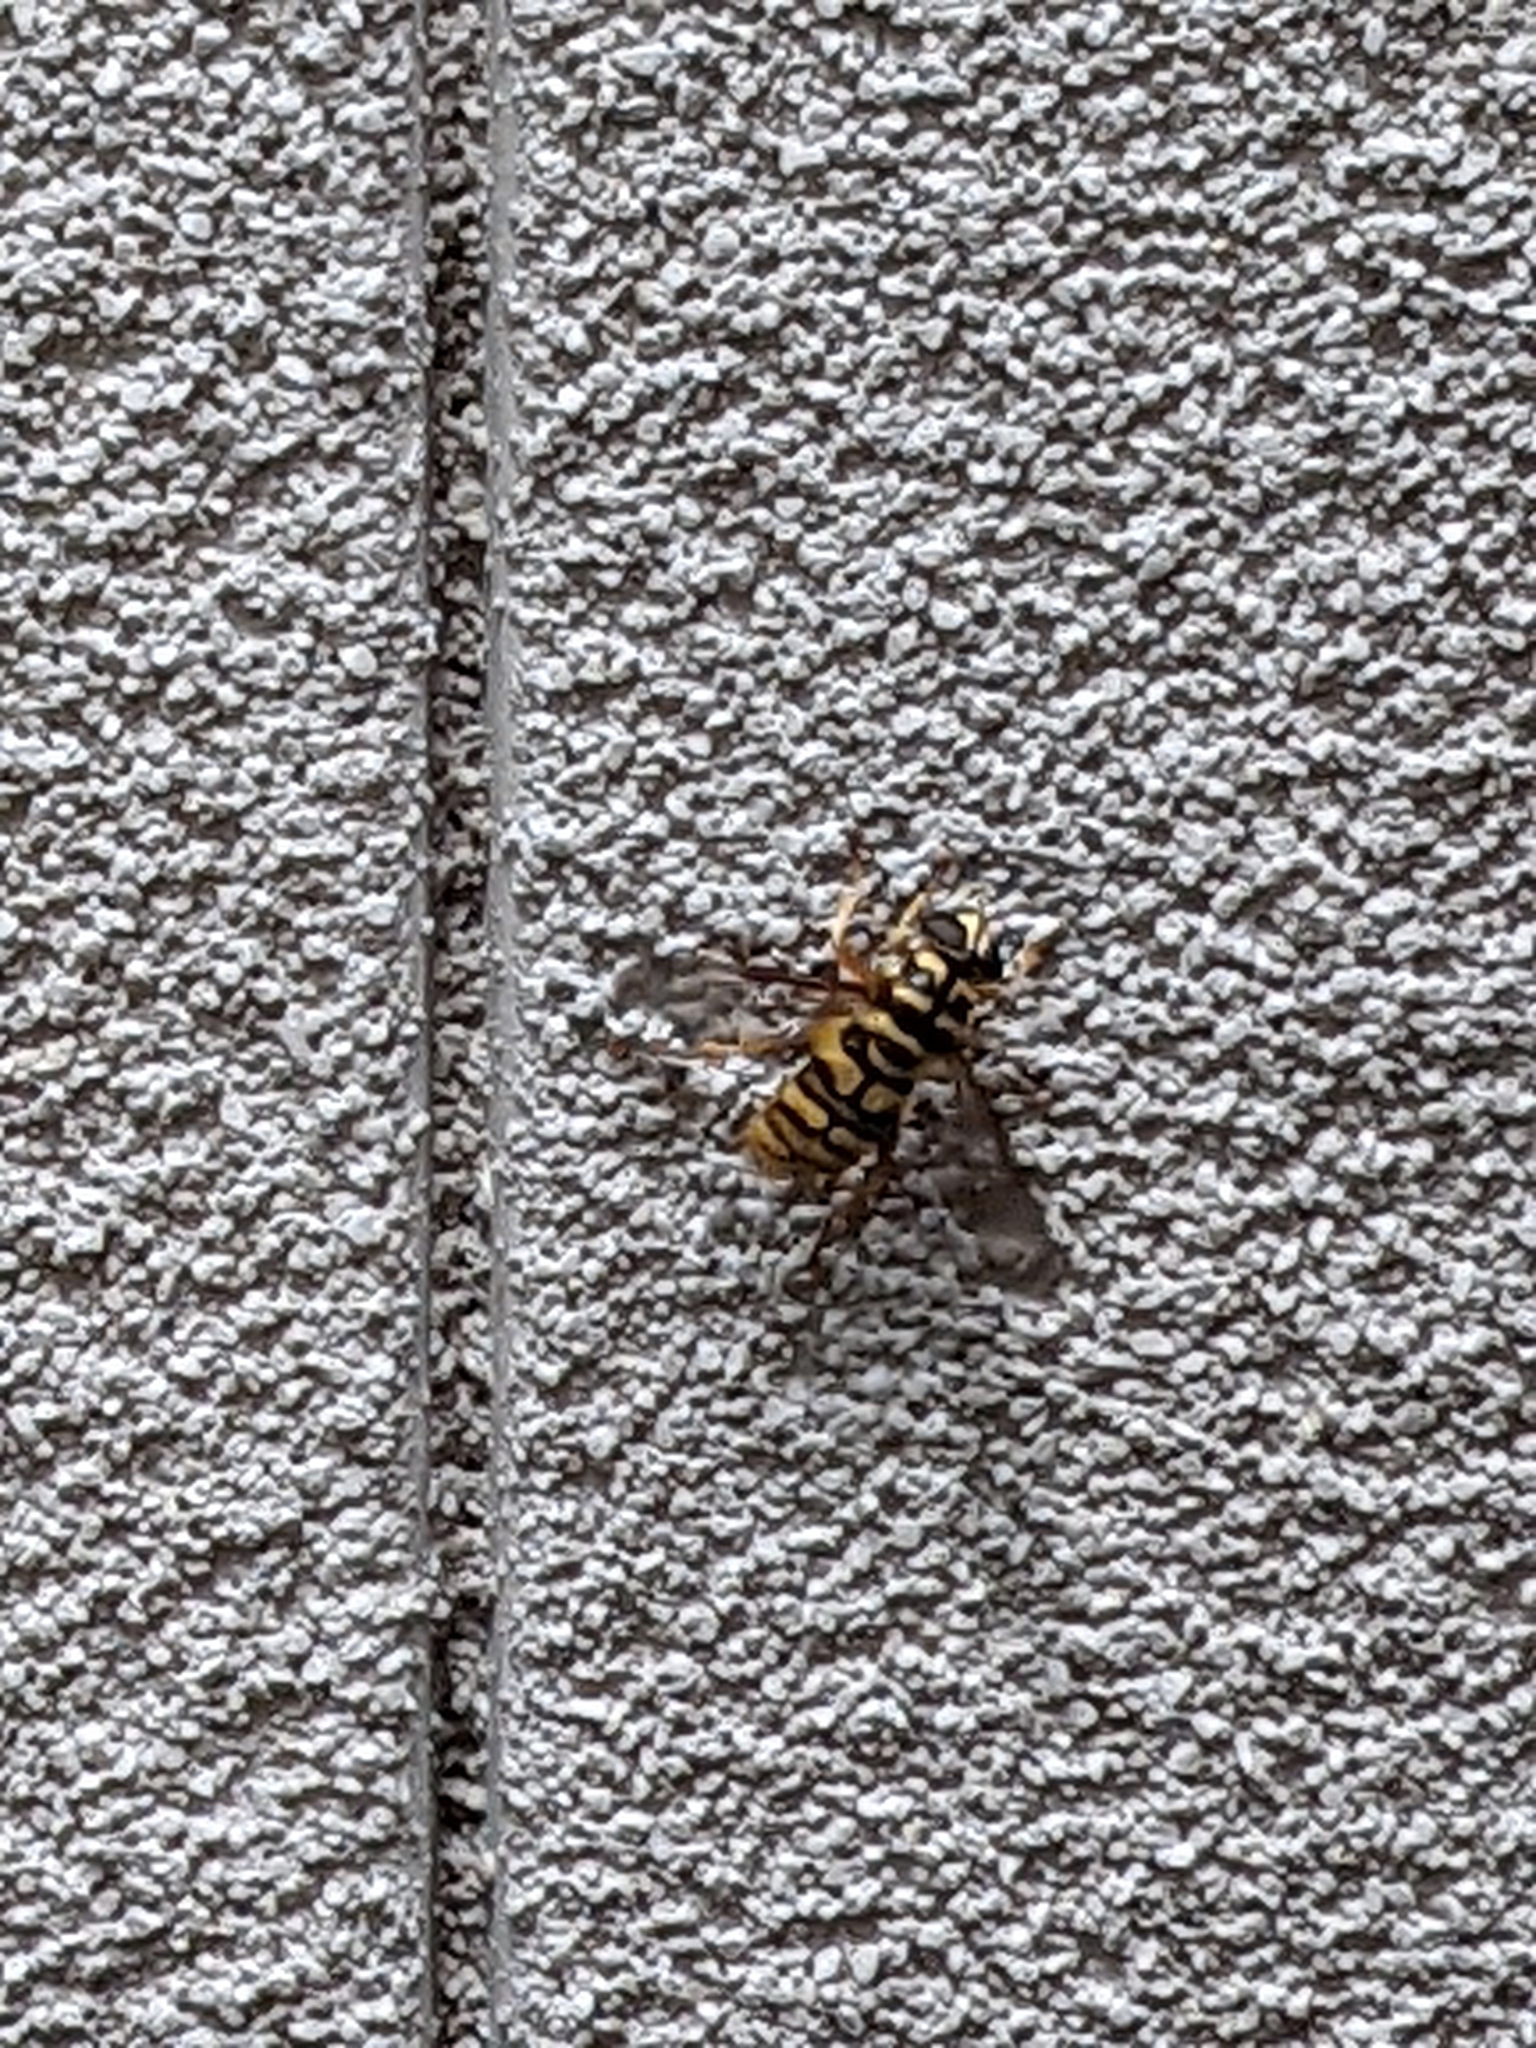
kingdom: Animalia
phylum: Arthropoda
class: Insecta
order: Diptera
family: Syrphidae
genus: Milesia
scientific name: Milesia virginiensis
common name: Virginia giant
